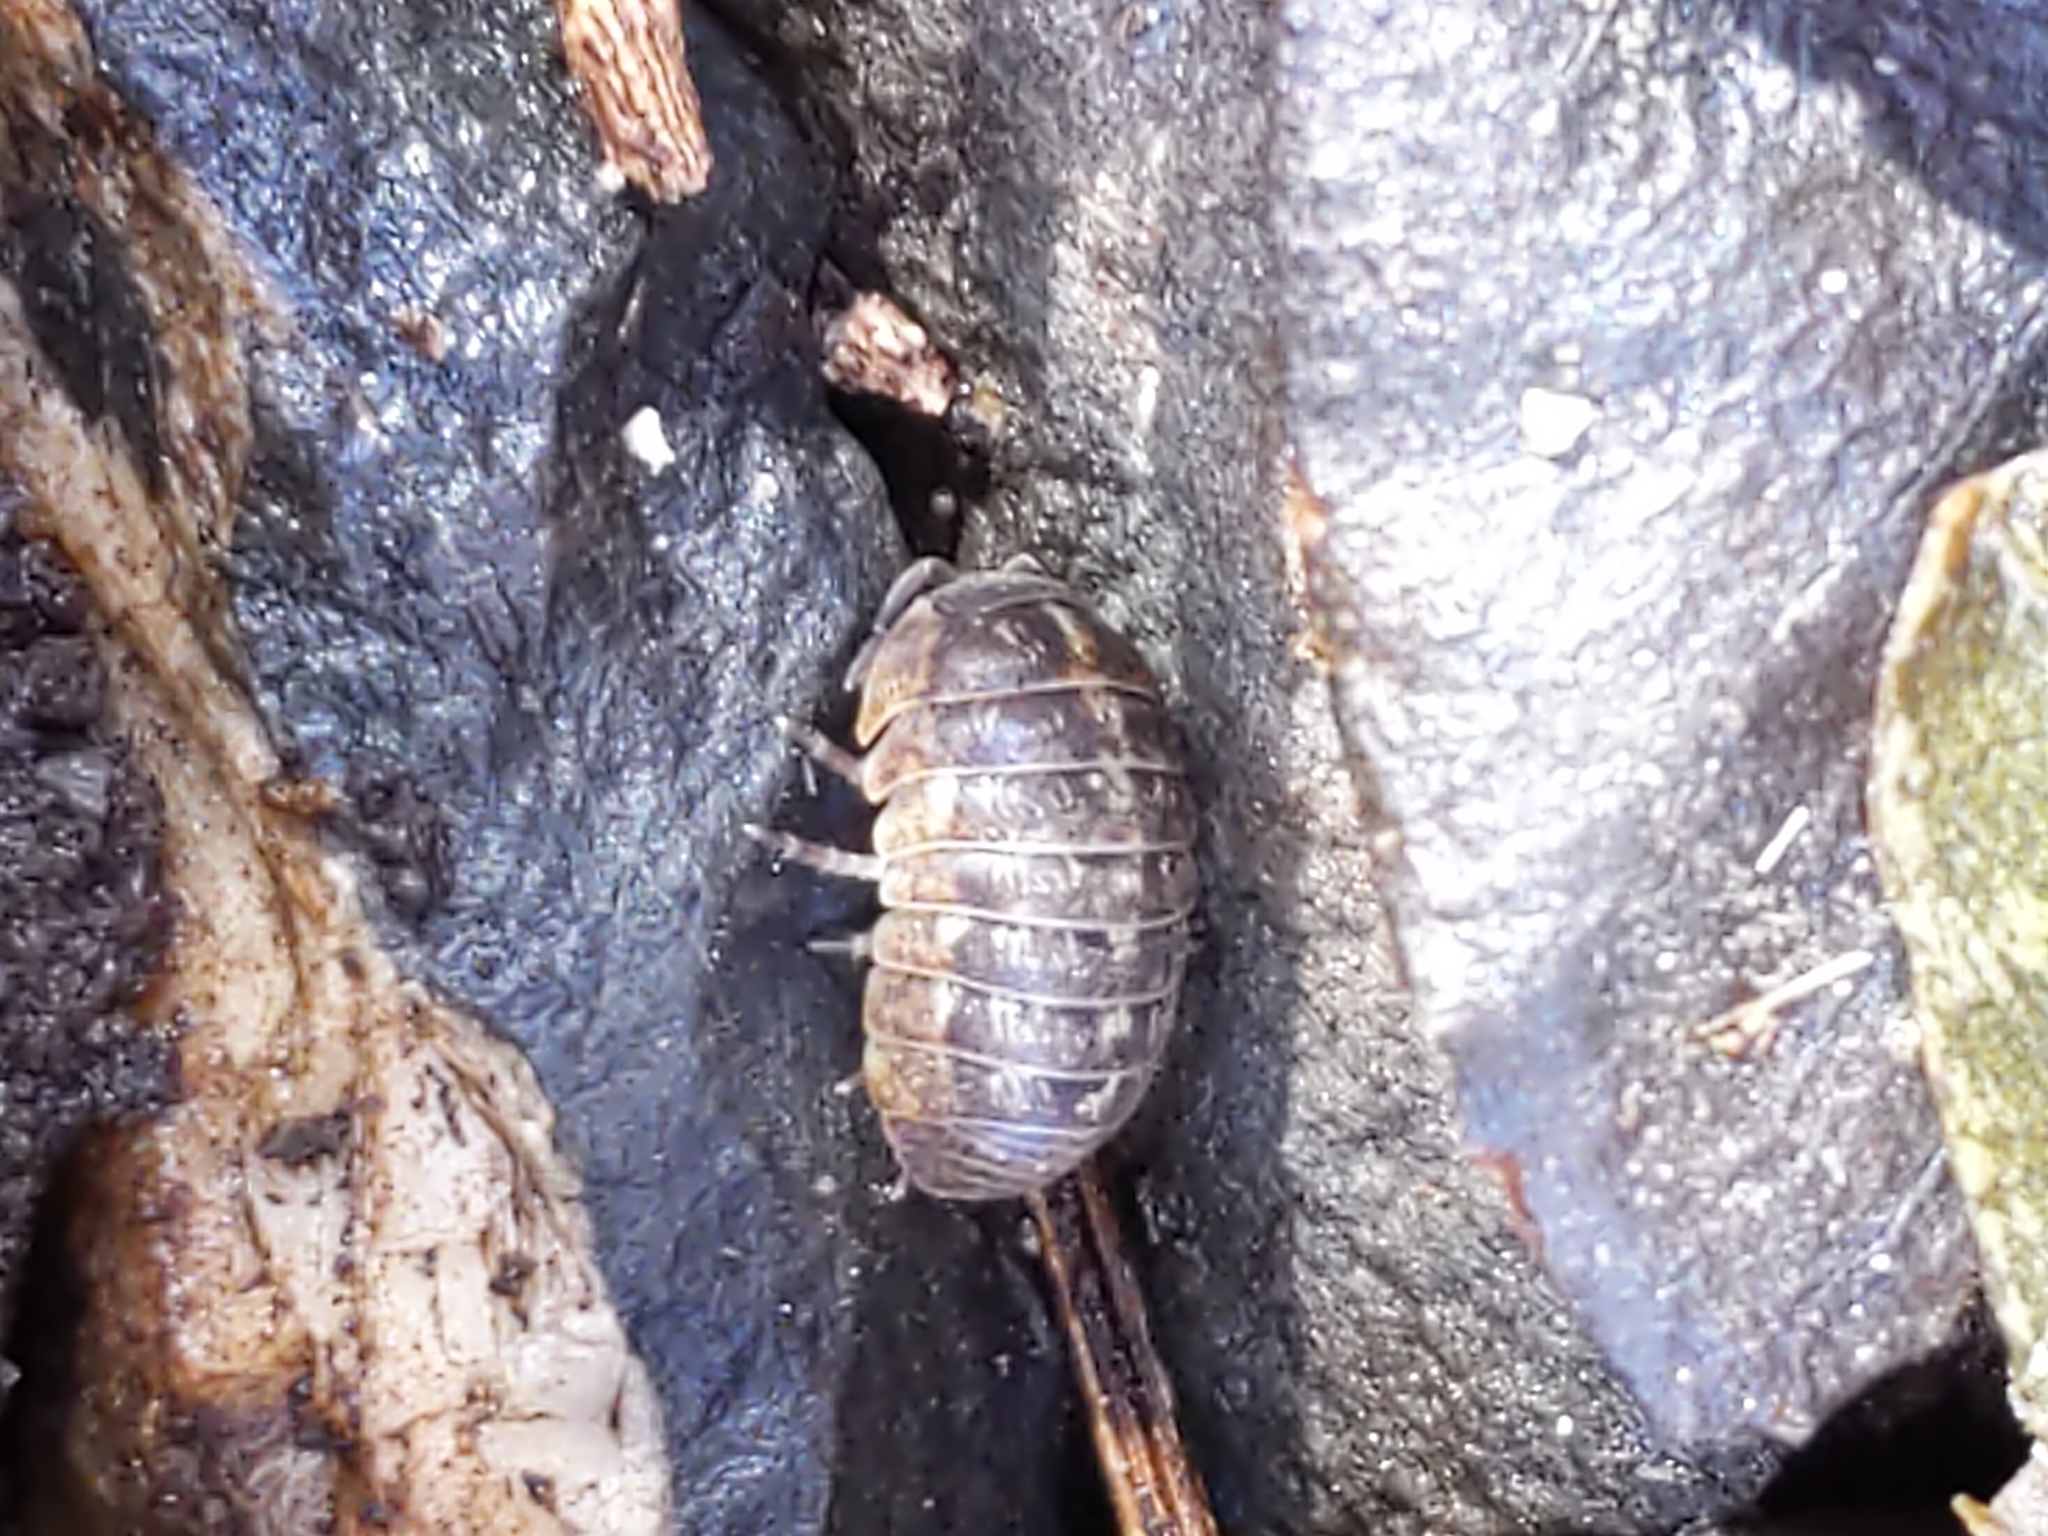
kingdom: Animalia
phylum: Arthropoda
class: Malacostraca
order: Isopoda
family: Armadillidiidae
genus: Armadillidium
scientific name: Armadillidium vulgare
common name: Common pill woodlouse
